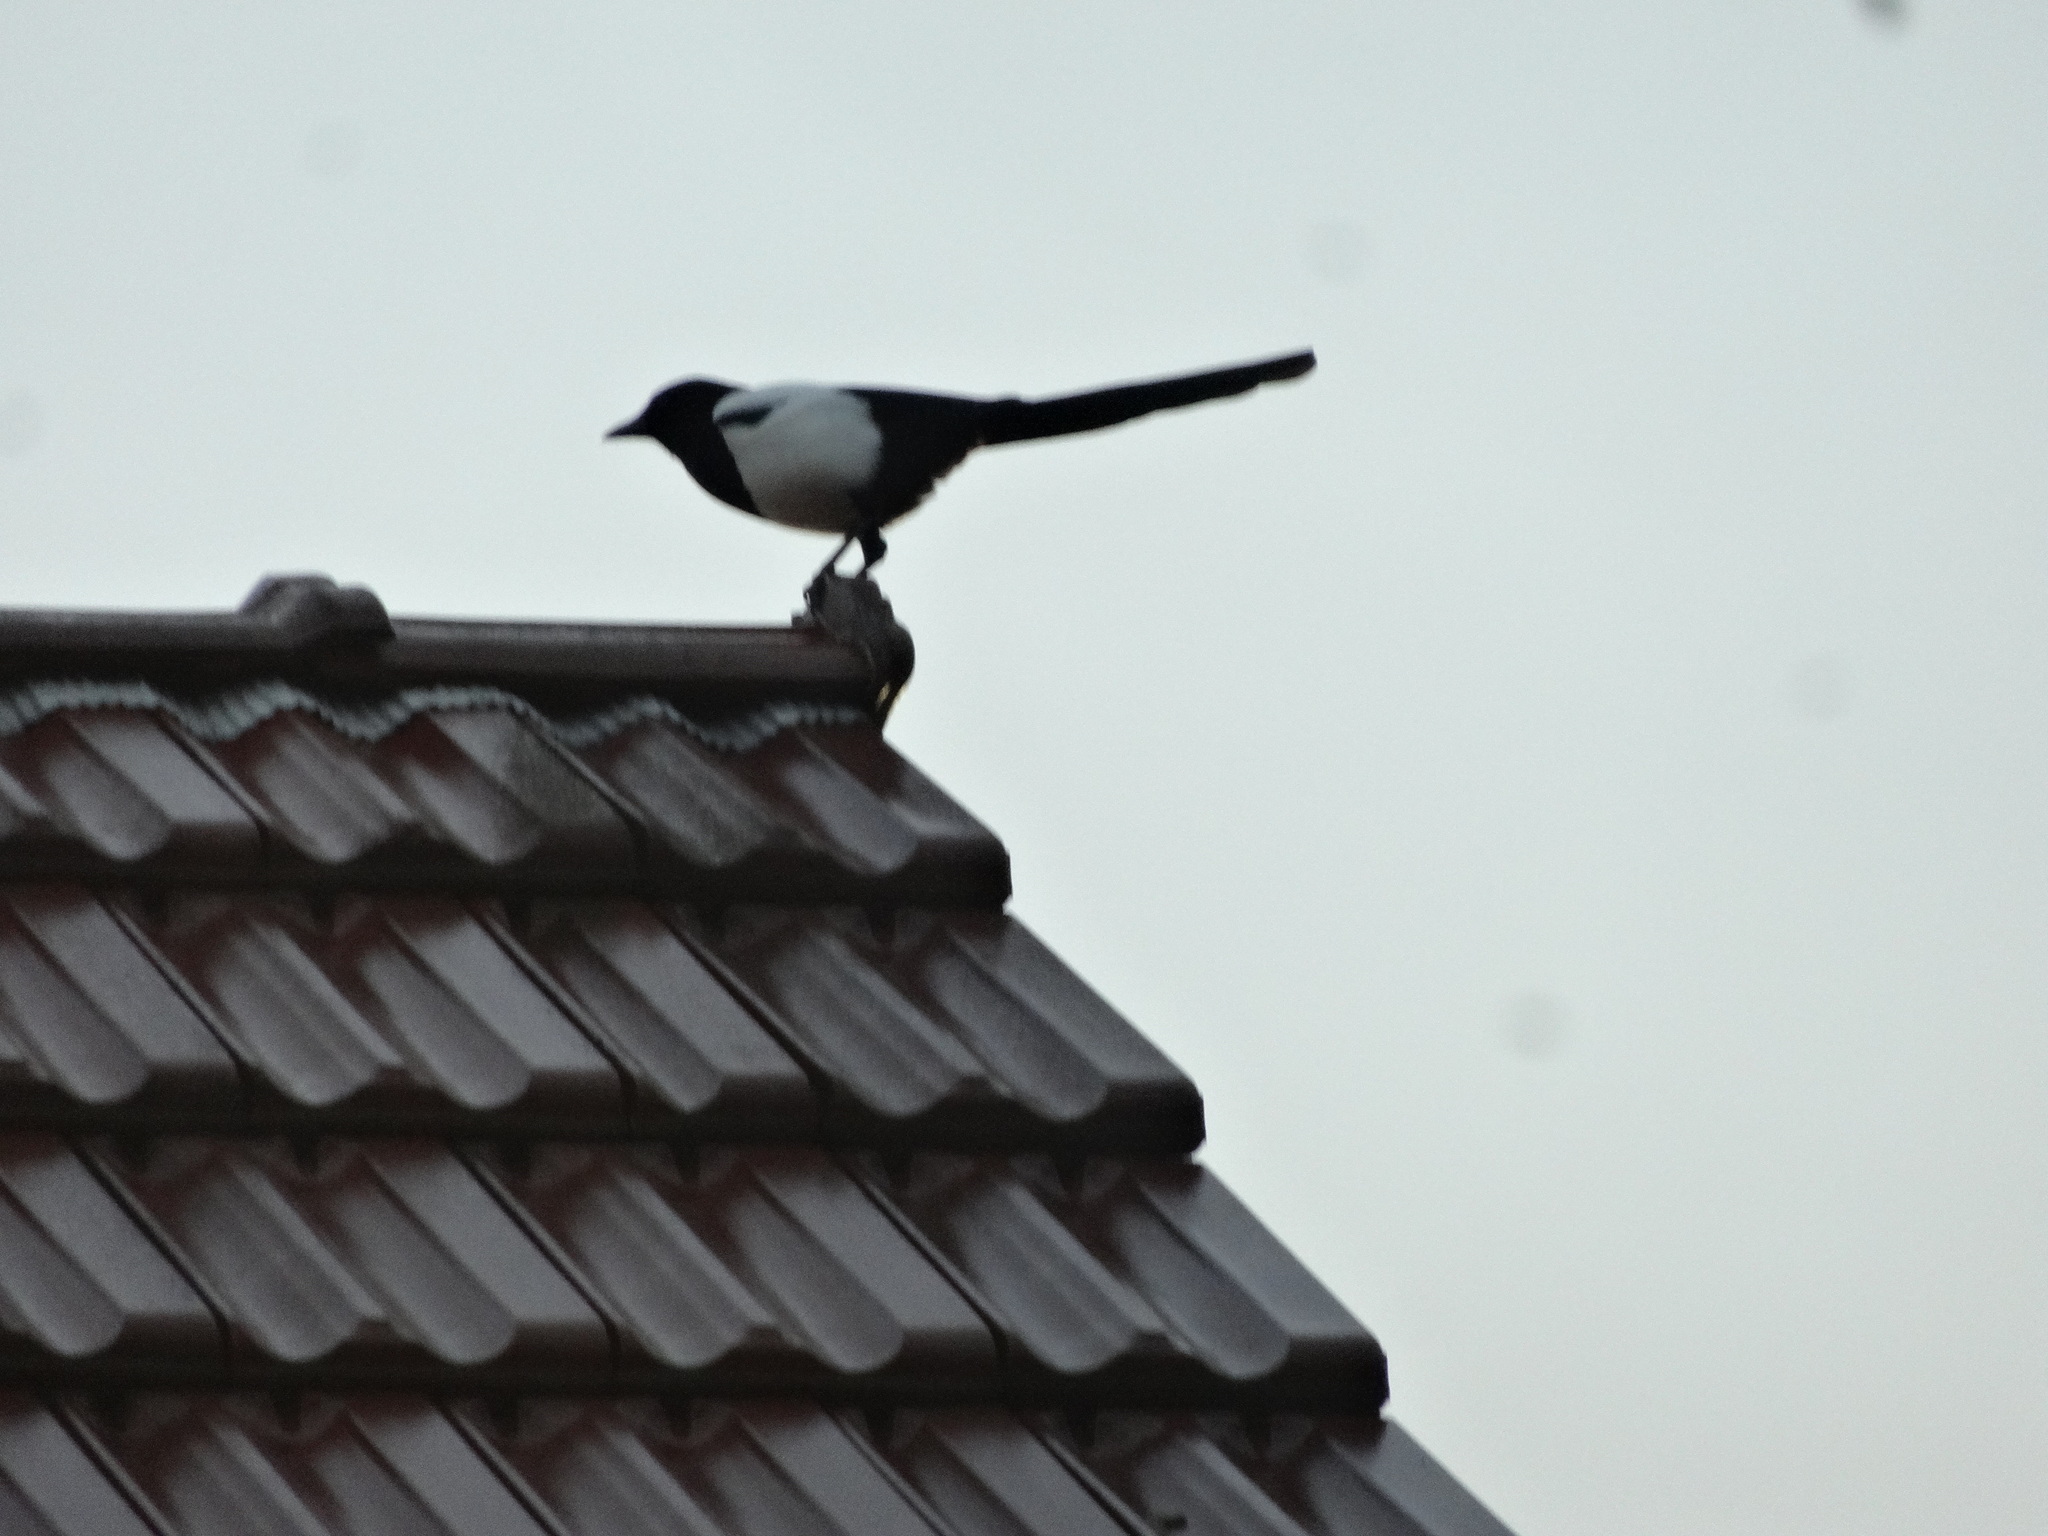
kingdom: Animalia
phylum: Chordata
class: Aves
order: Passeriformes
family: Corvidae
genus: Pica
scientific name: Pica pica
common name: Eurasian magpie
